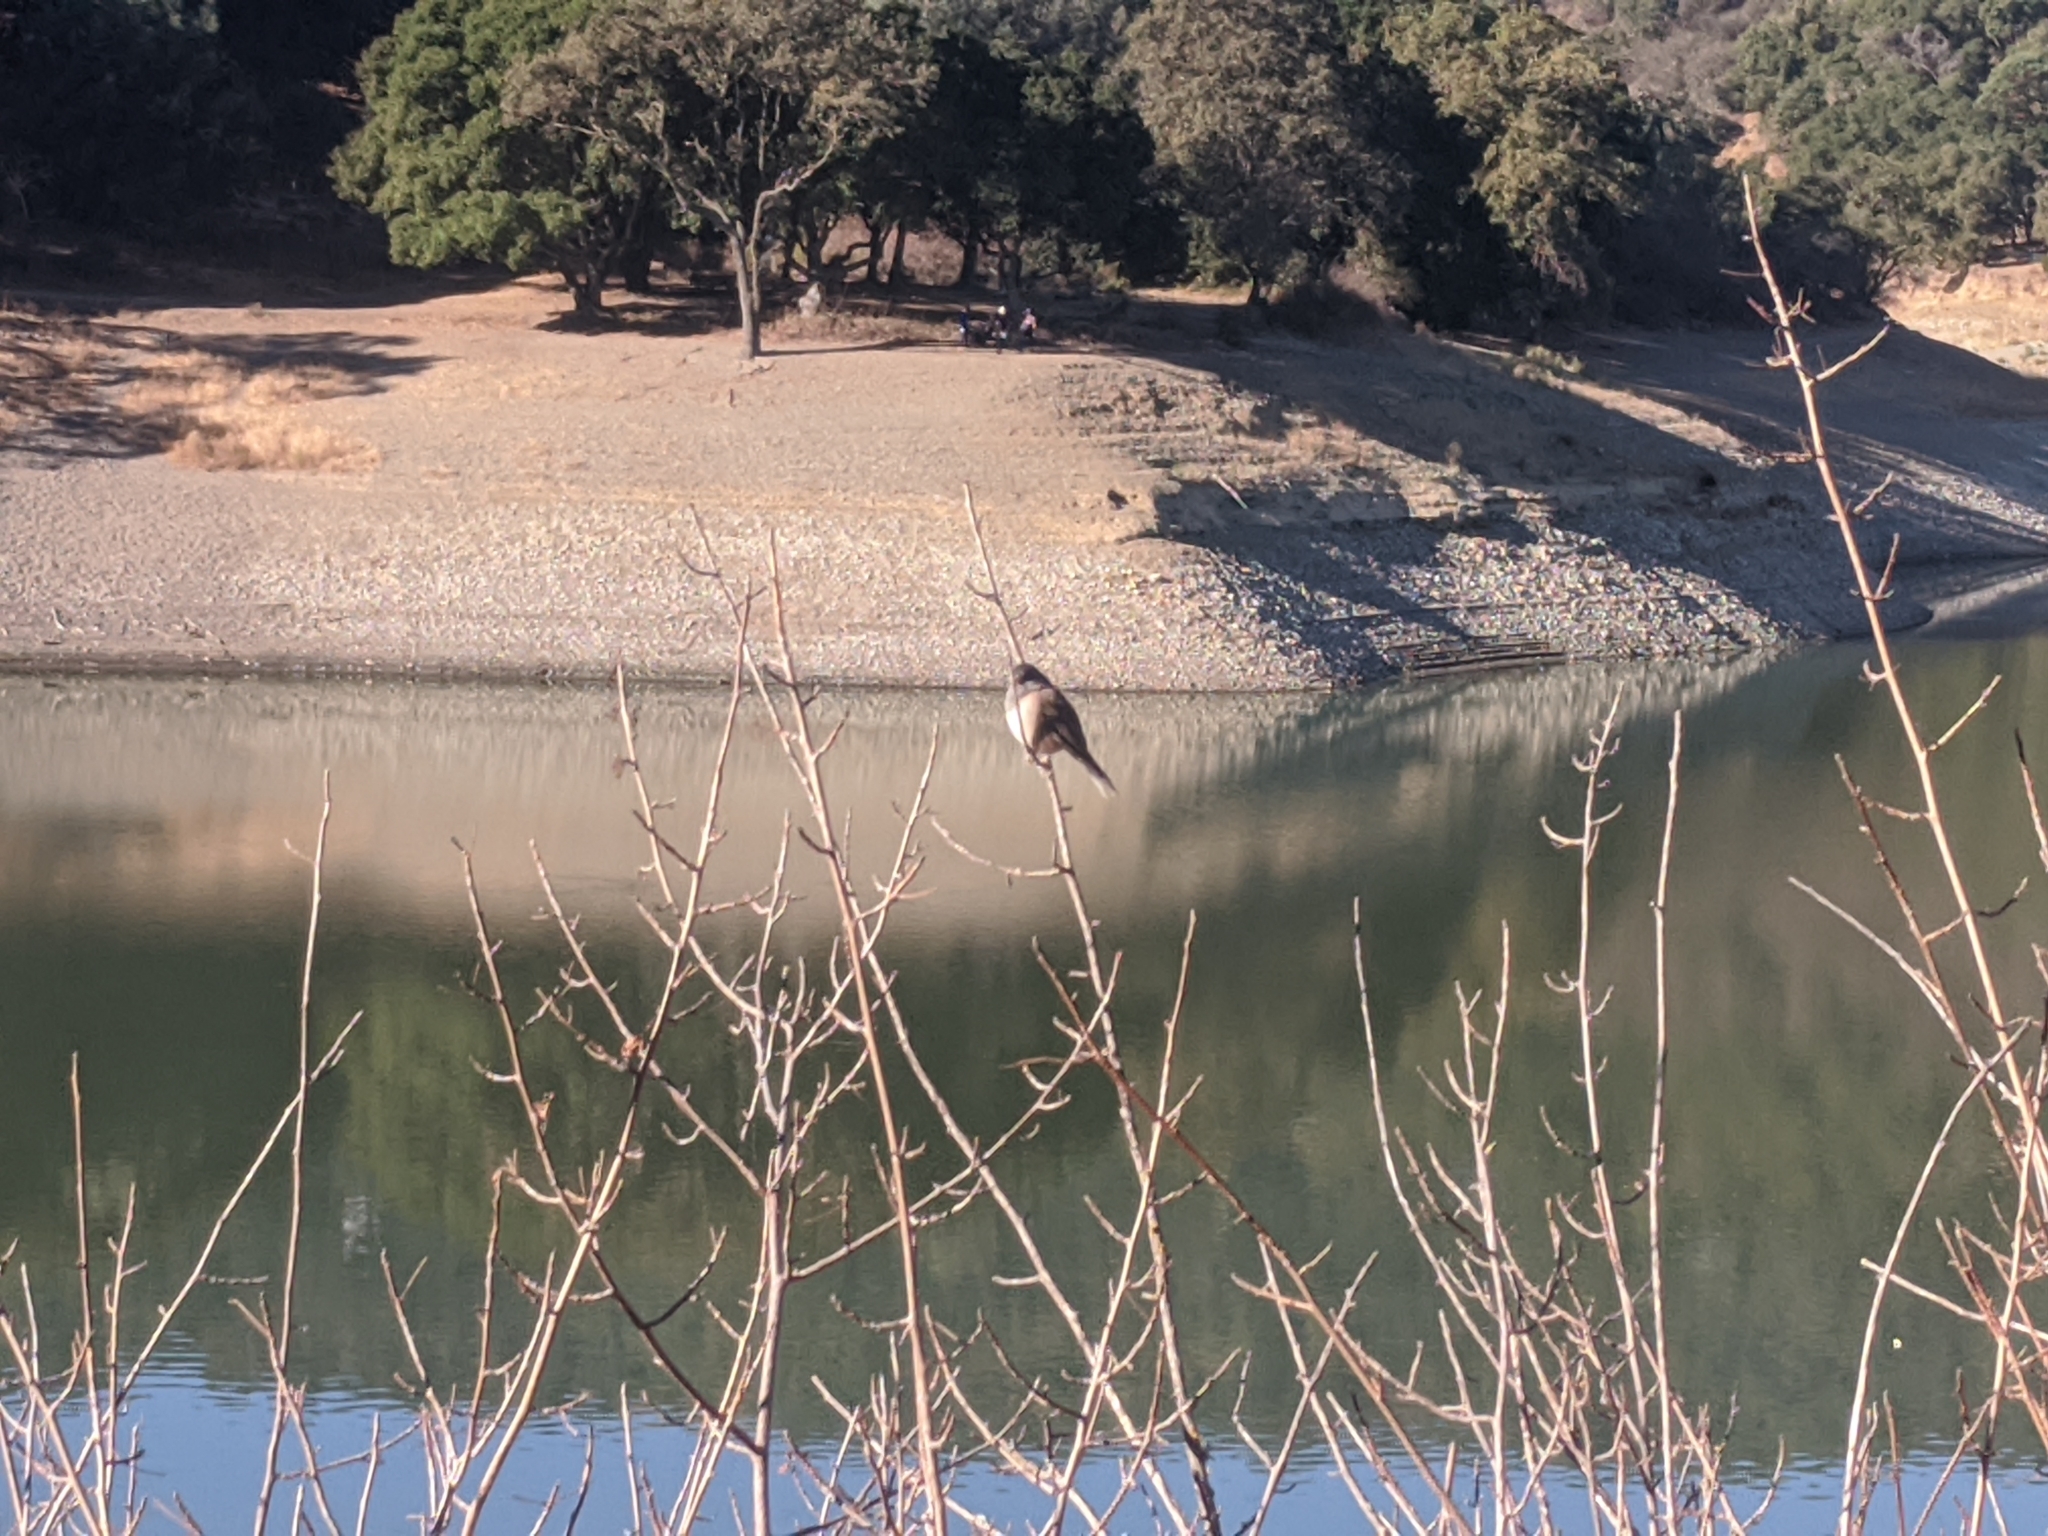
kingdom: Animalia
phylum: Chordata
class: Aves
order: Passeriformes
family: Passerellidae
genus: Junco
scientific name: Junco hyemalis
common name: Dark-eyed junco
